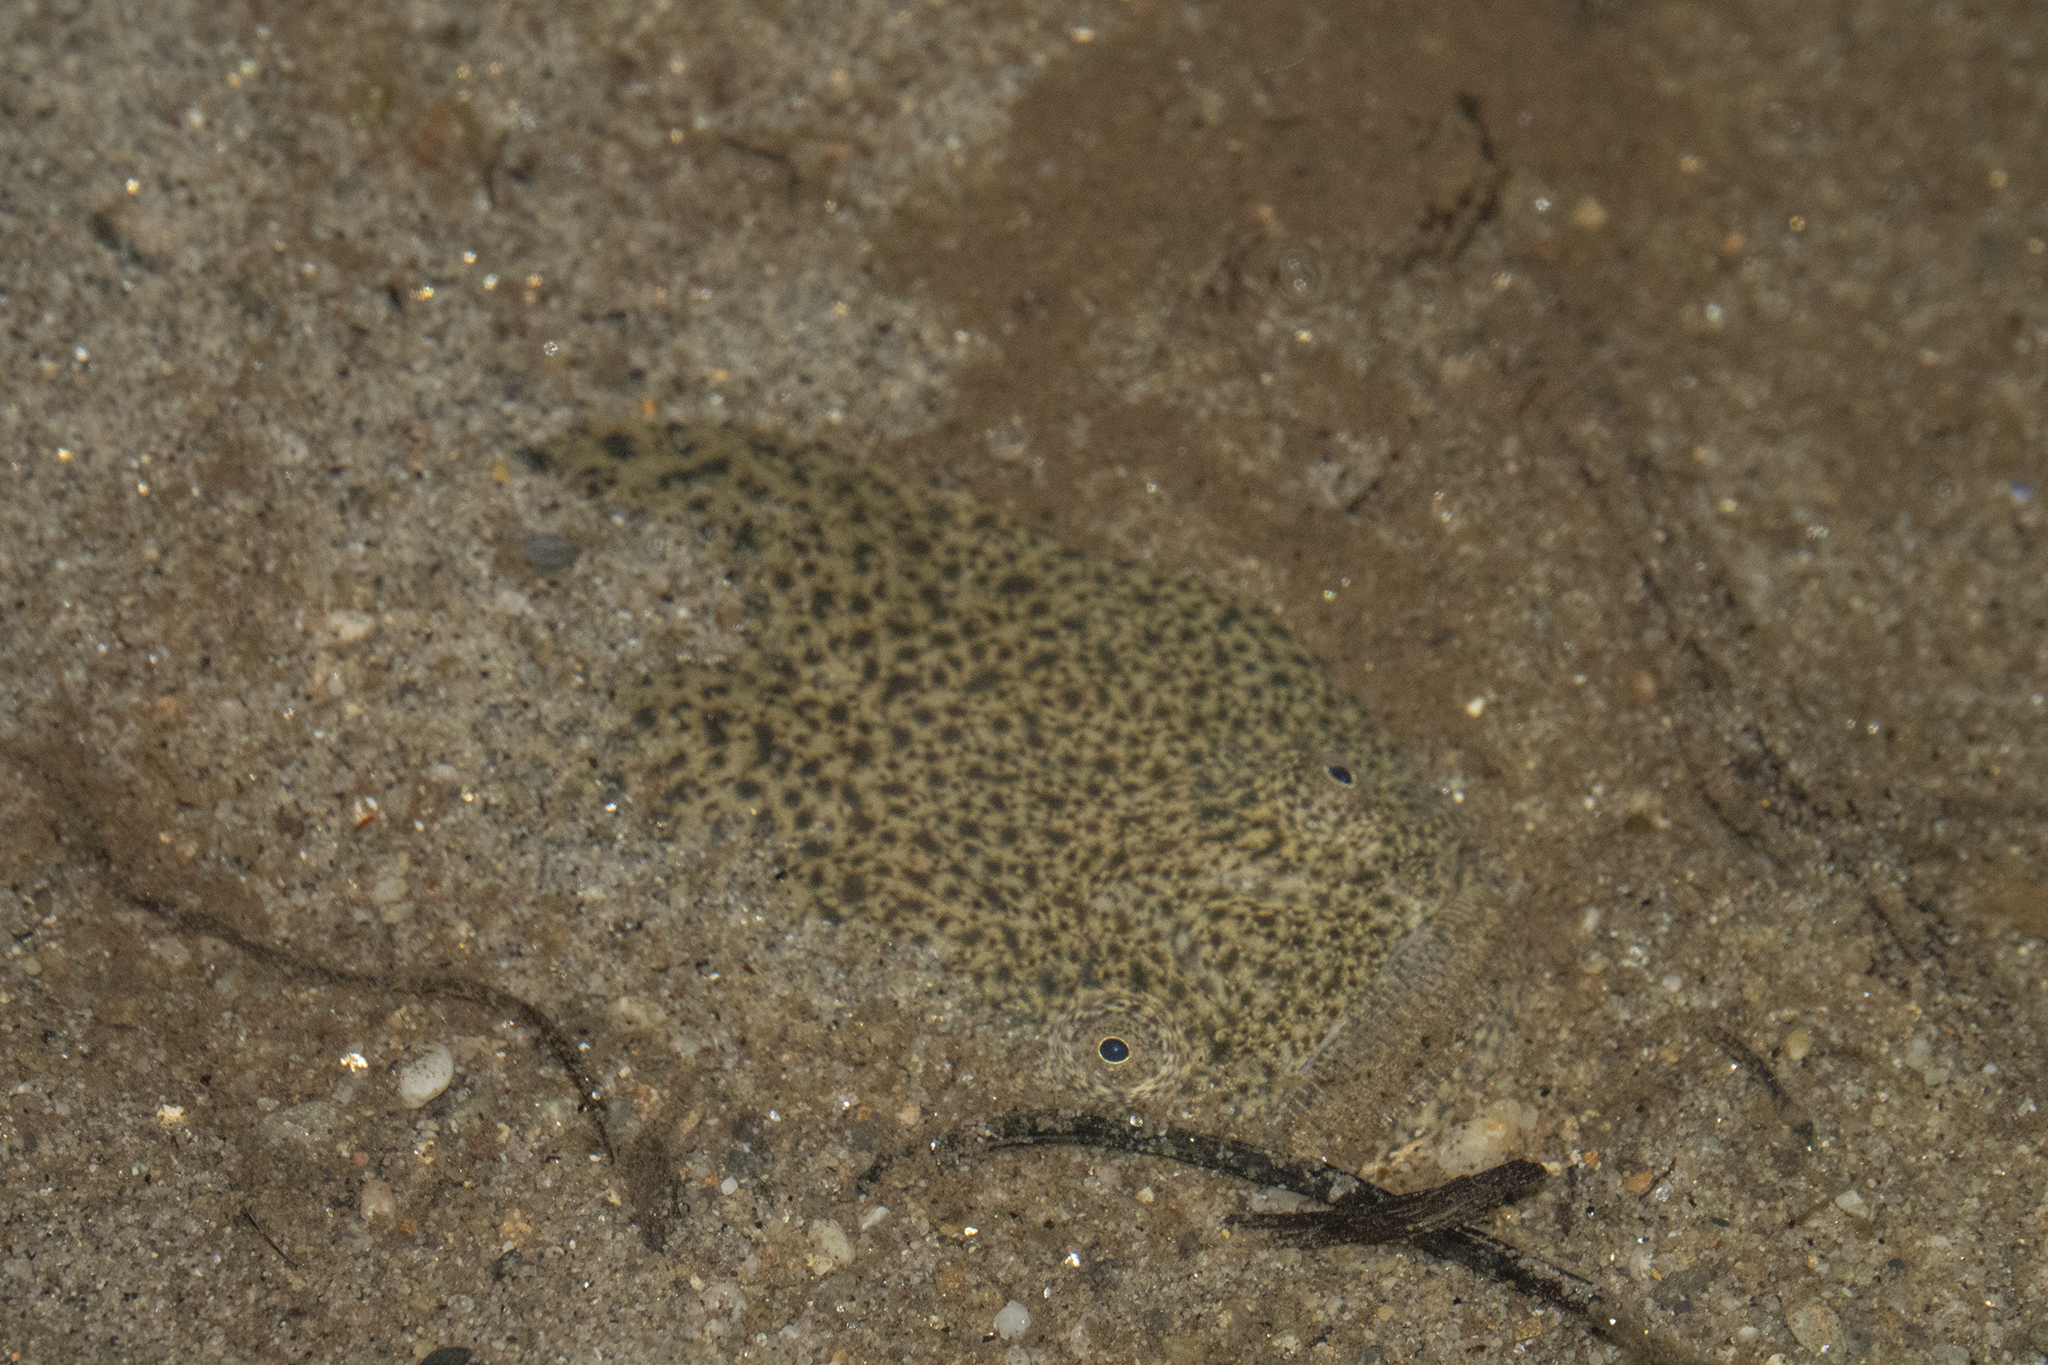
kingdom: Animalia
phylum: Chordata
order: Perciformes
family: Leptoscopidae
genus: Leptoscopus
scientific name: Leptoscopus macropygus
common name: Estuary stargazer
